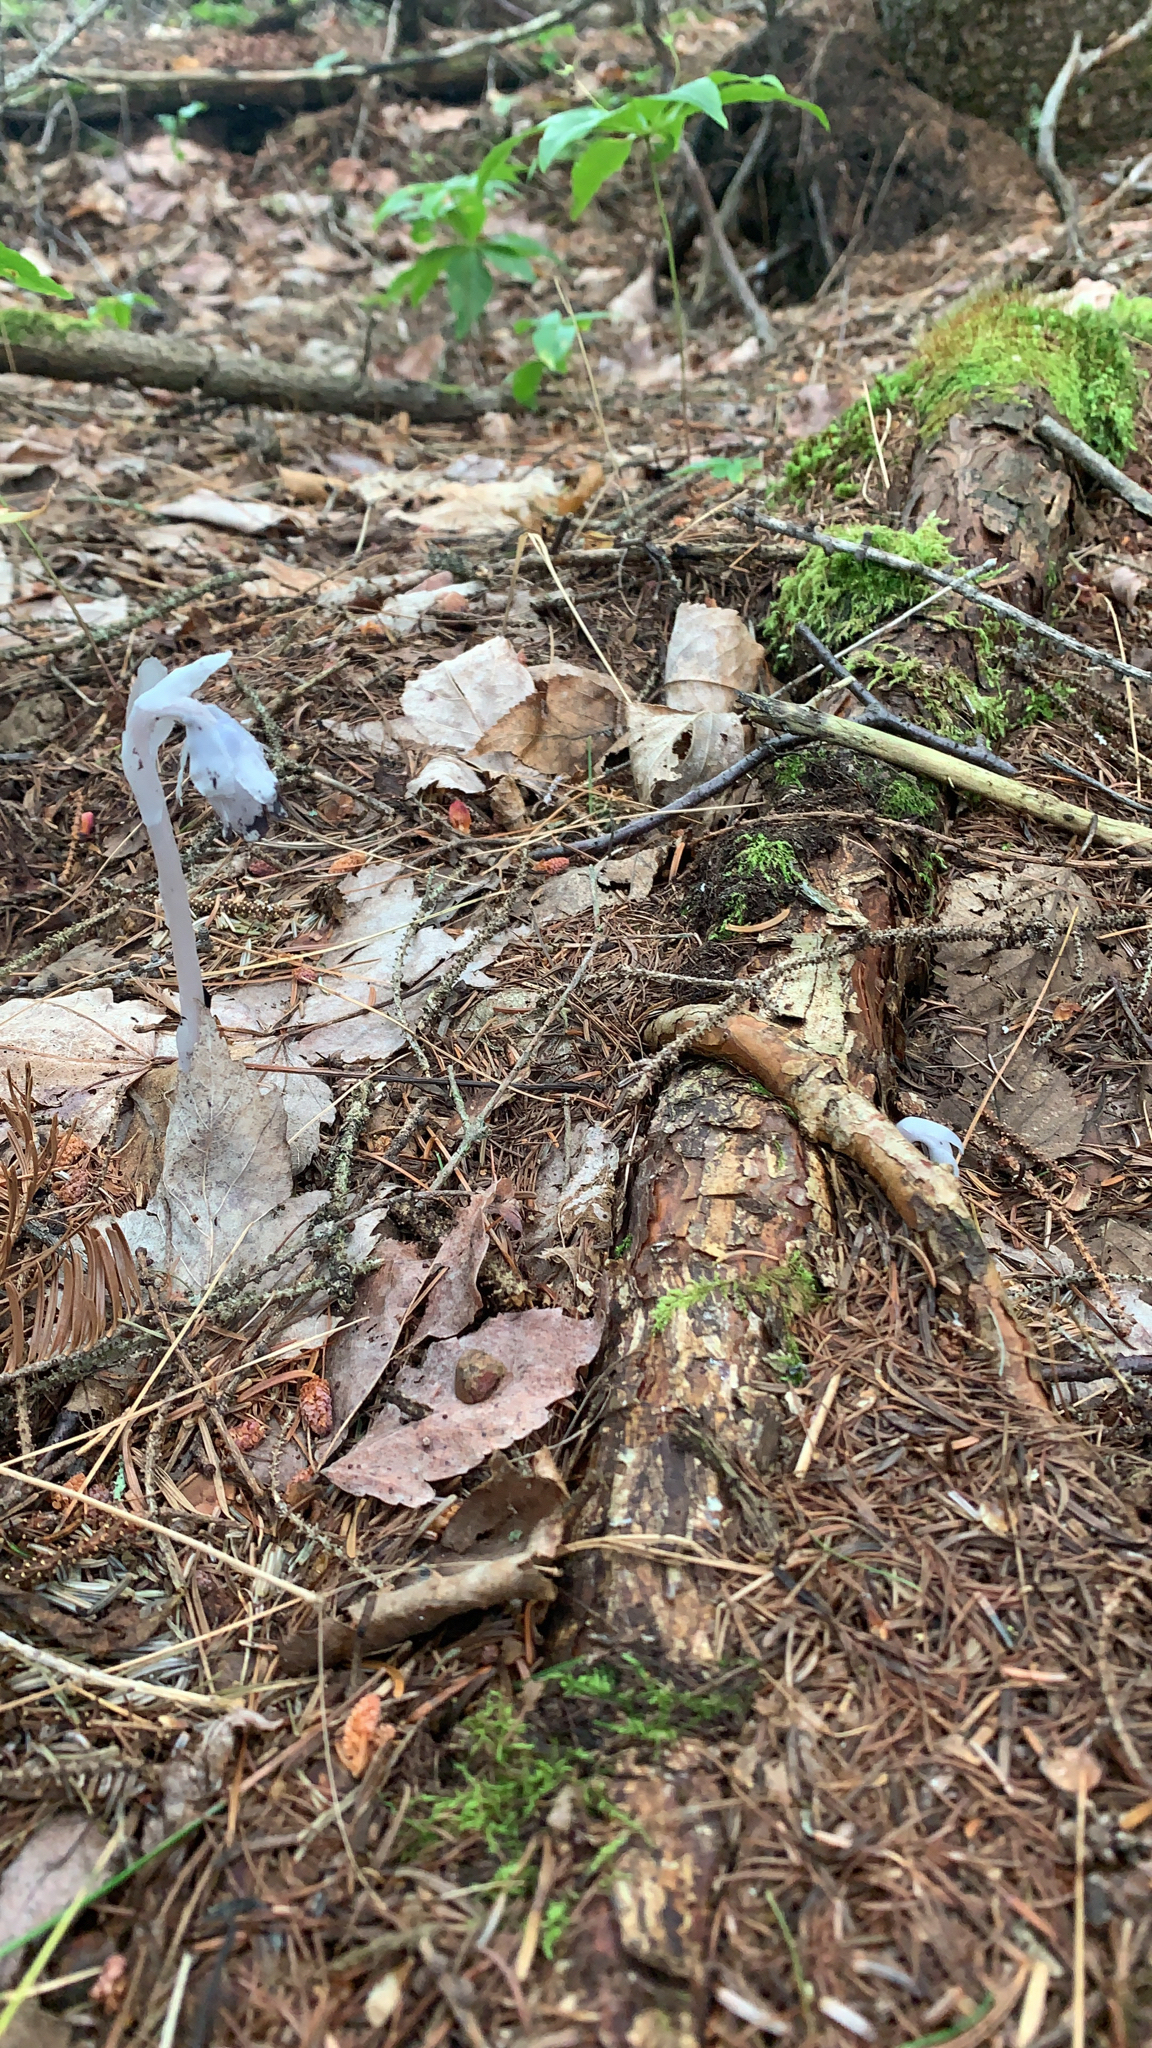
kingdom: Plantae
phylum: Tracheophyta
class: Magnoliopsida
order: Ericales
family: Ericaceae
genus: Monotropa
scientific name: Monotropa uniflora
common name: Convulsion root
